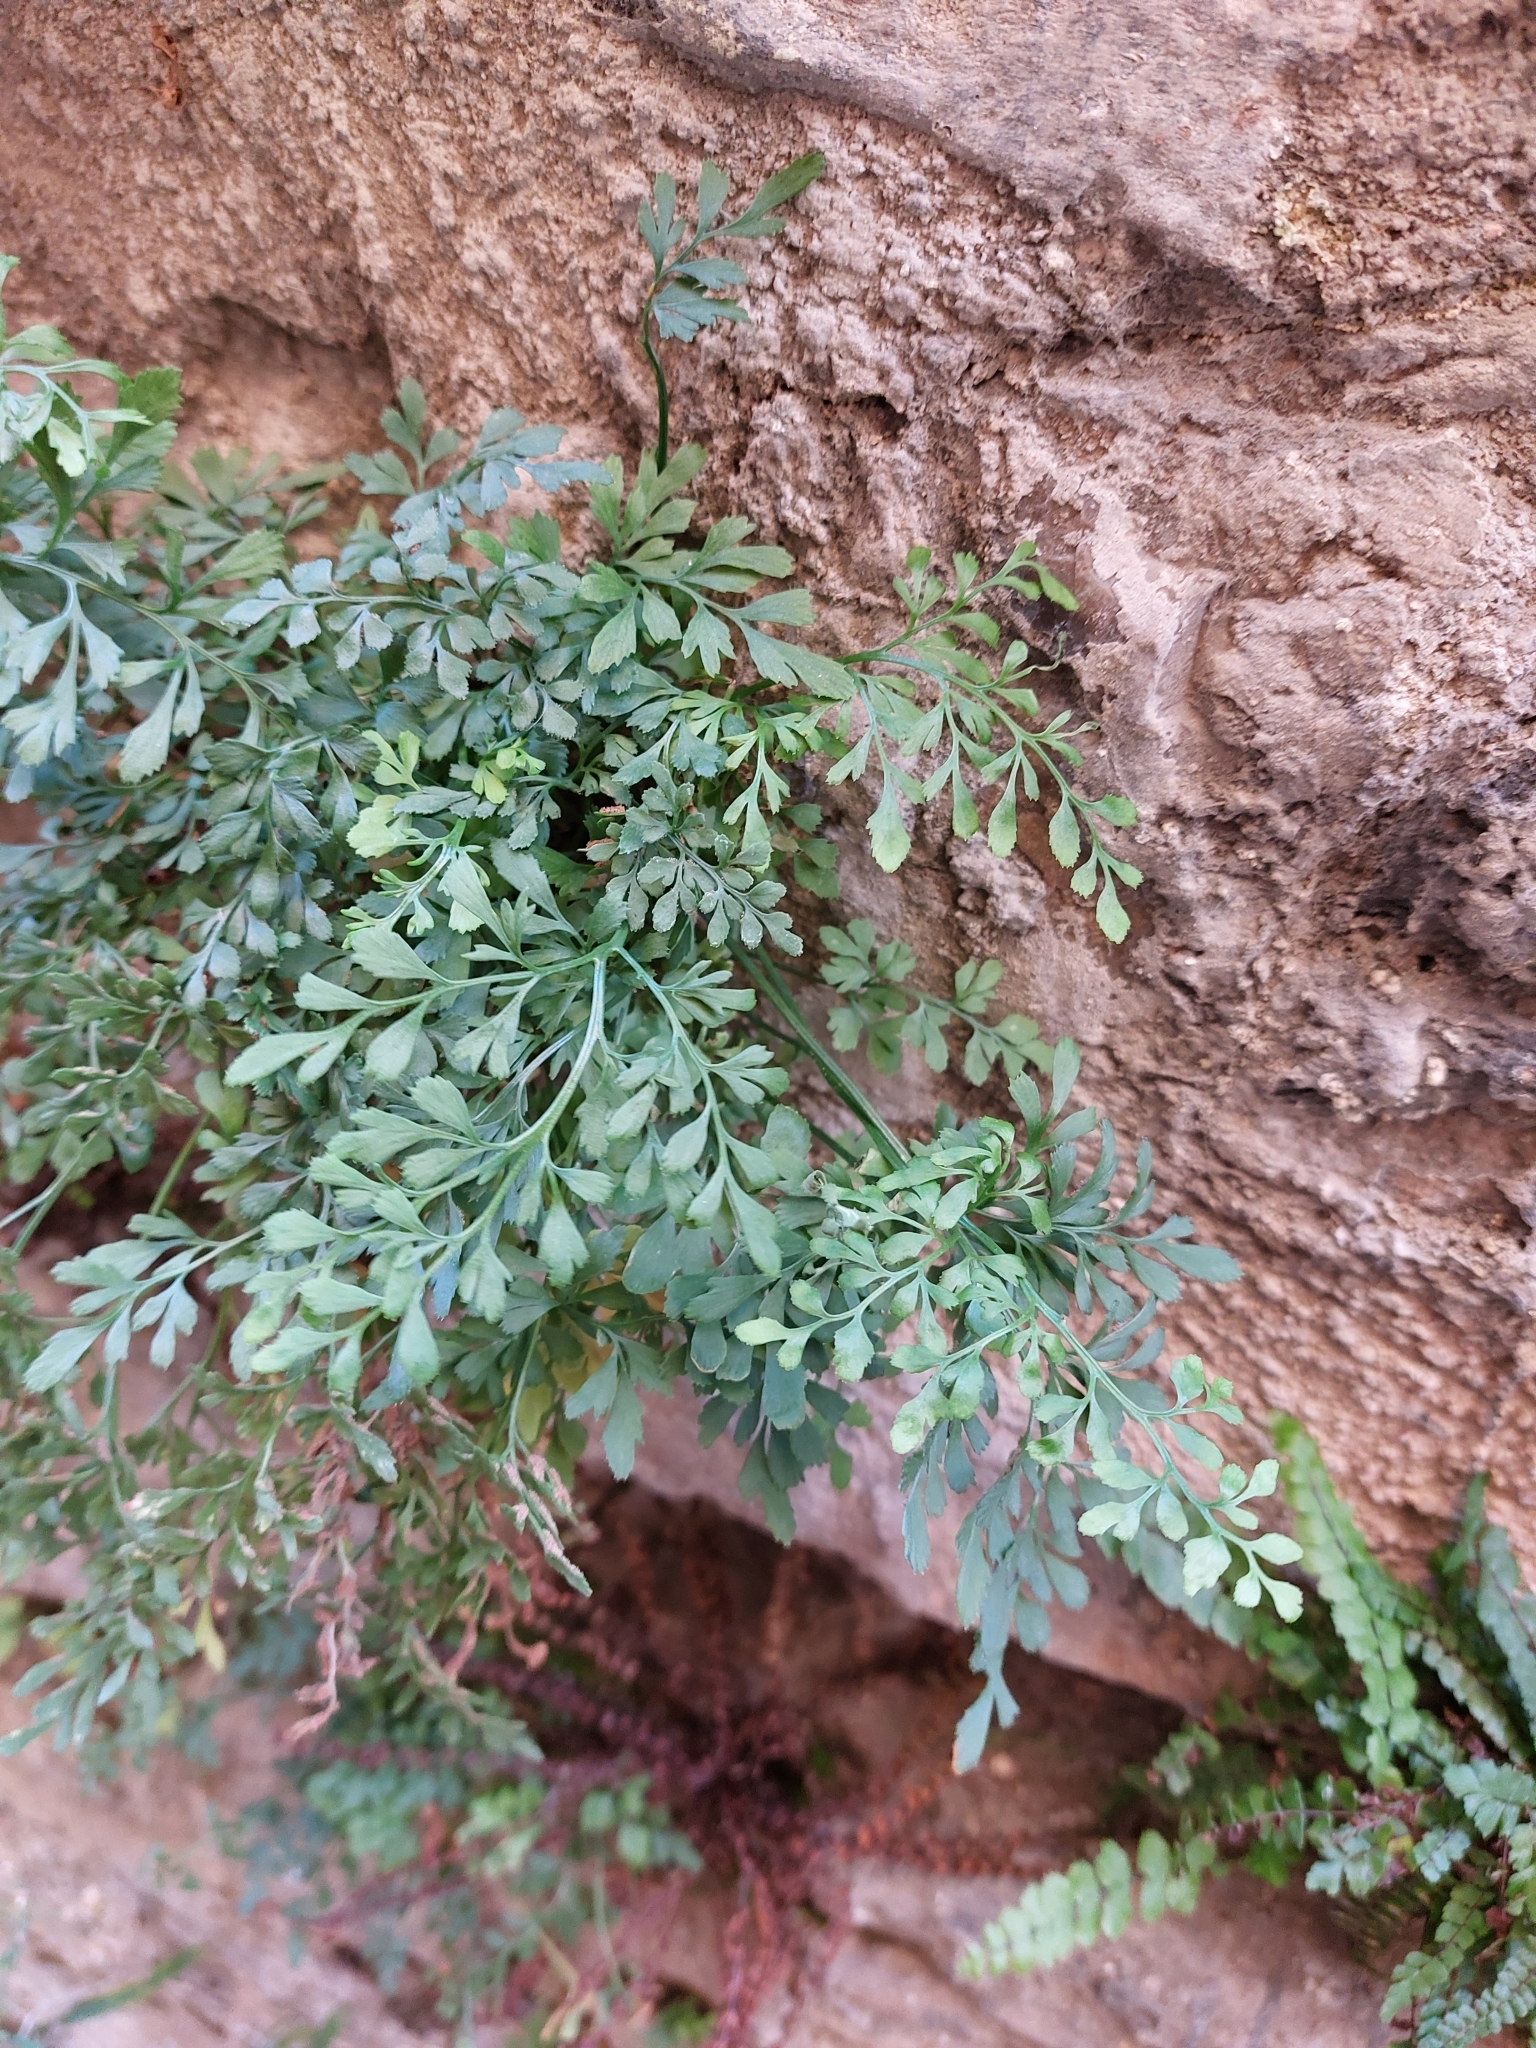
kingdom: Plantae
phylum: Tracheophyta
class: Polypodiopsida
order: Polypodiales
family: Aspleniaceae
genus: Asplenium
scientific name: Asplenium ruta-muraria
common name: Wall-rue
